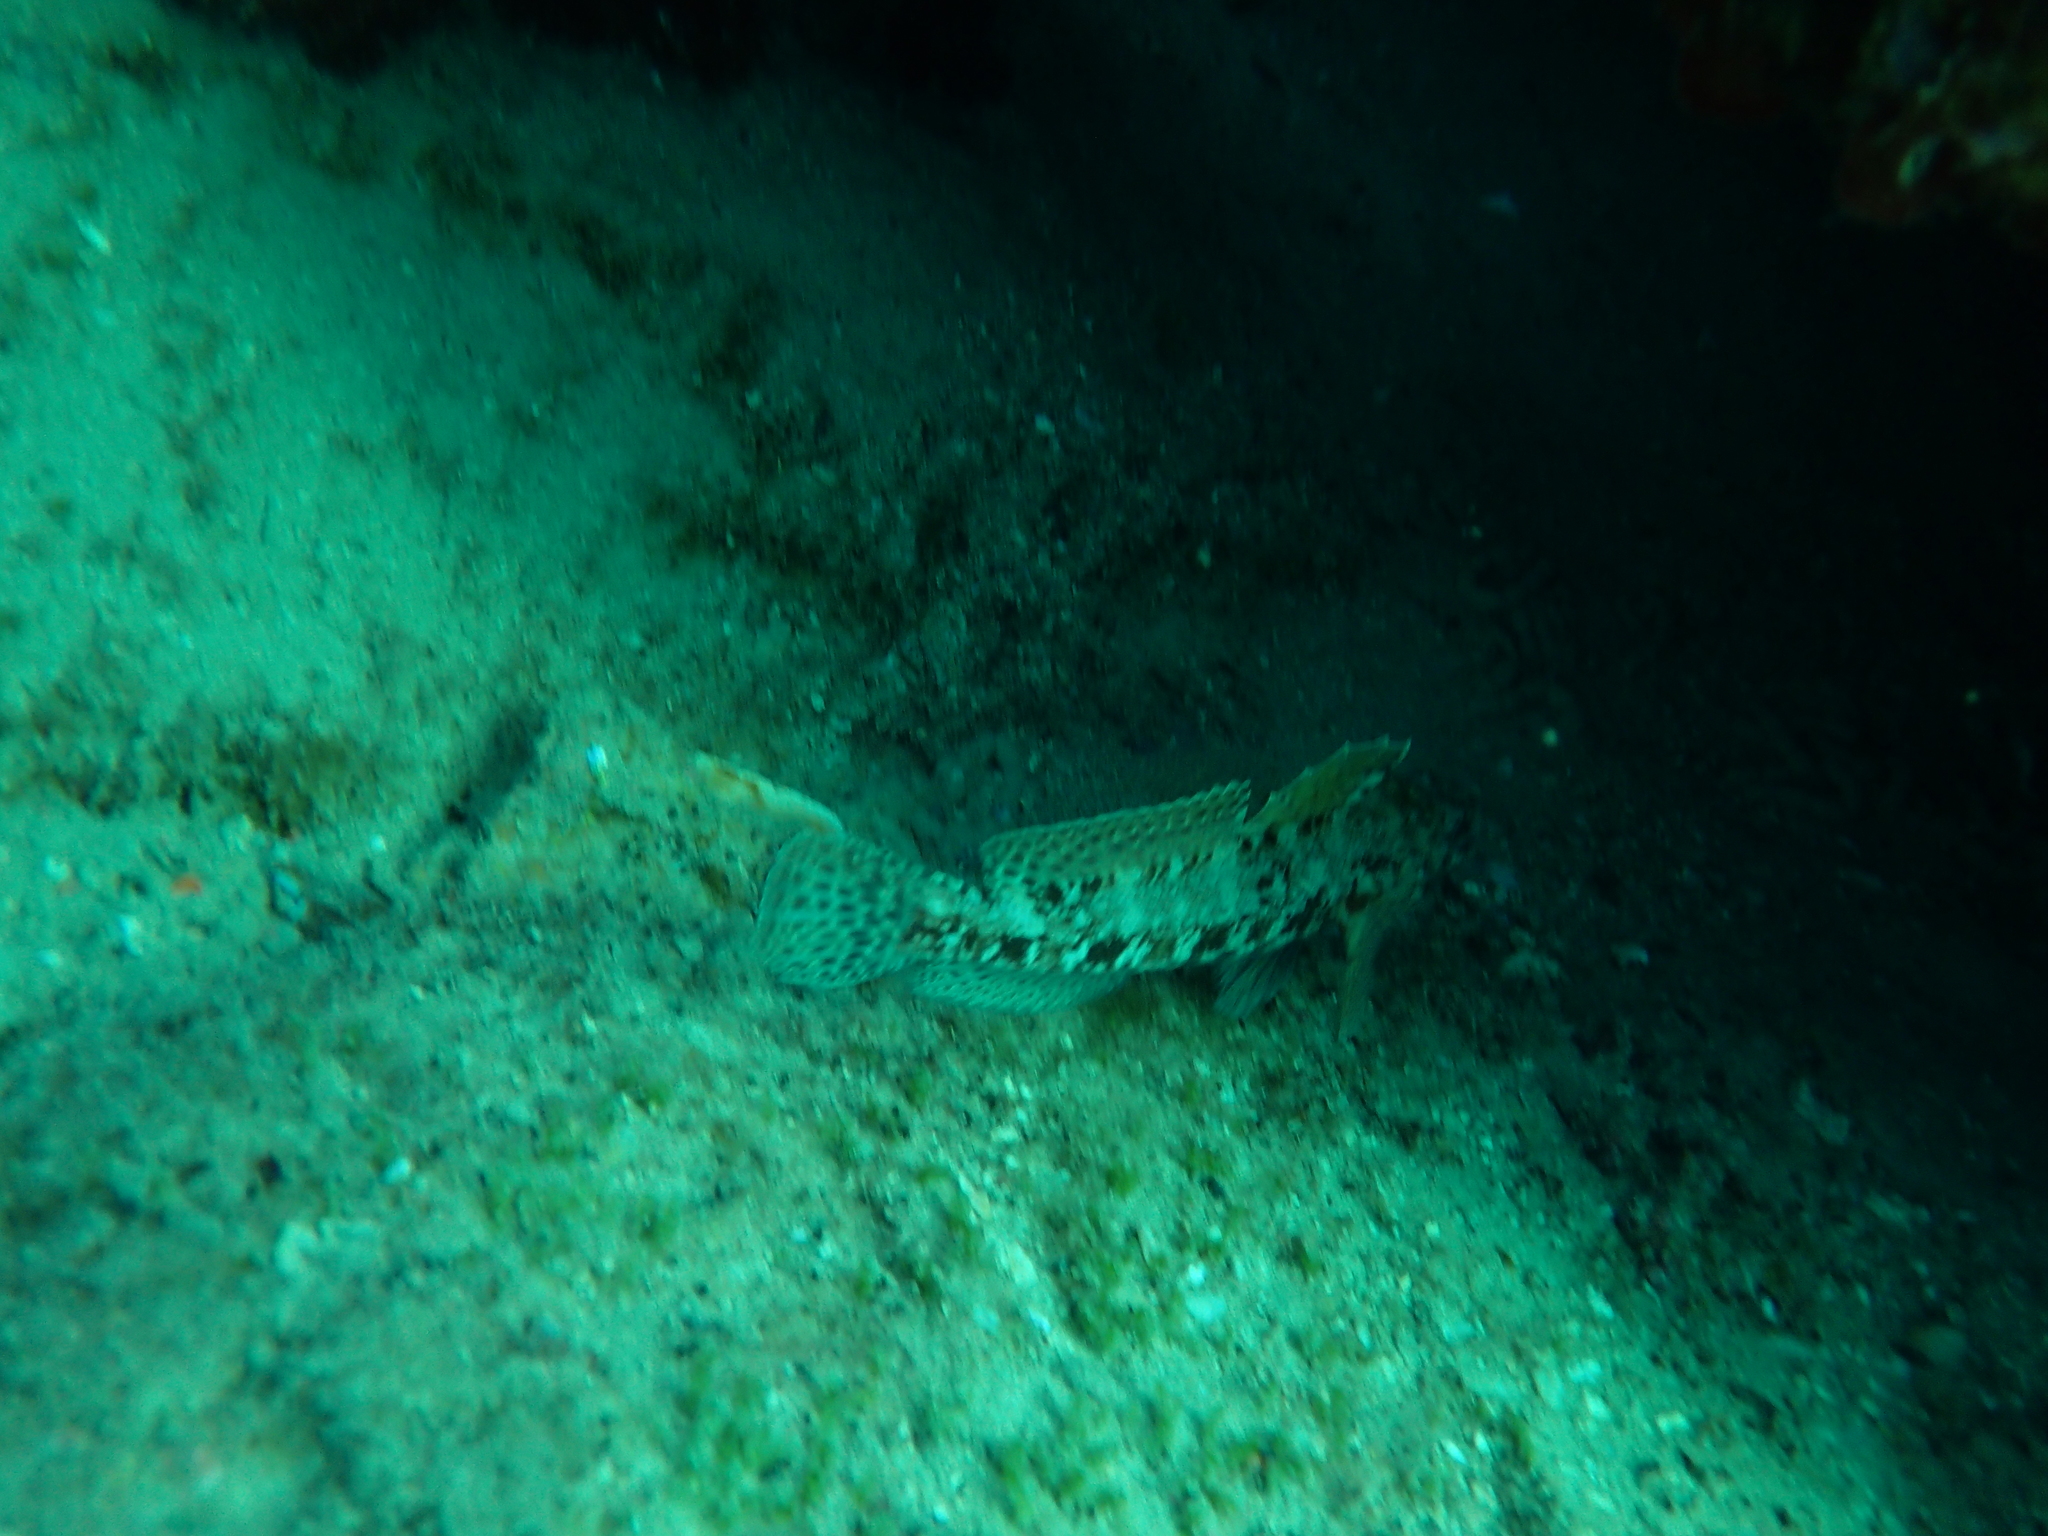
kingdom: Animalia
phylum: Chordata
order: Perciformes
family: Gobiidae
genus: Gobius
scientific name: Gobius cruentatus
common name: Red-mouthed goby
